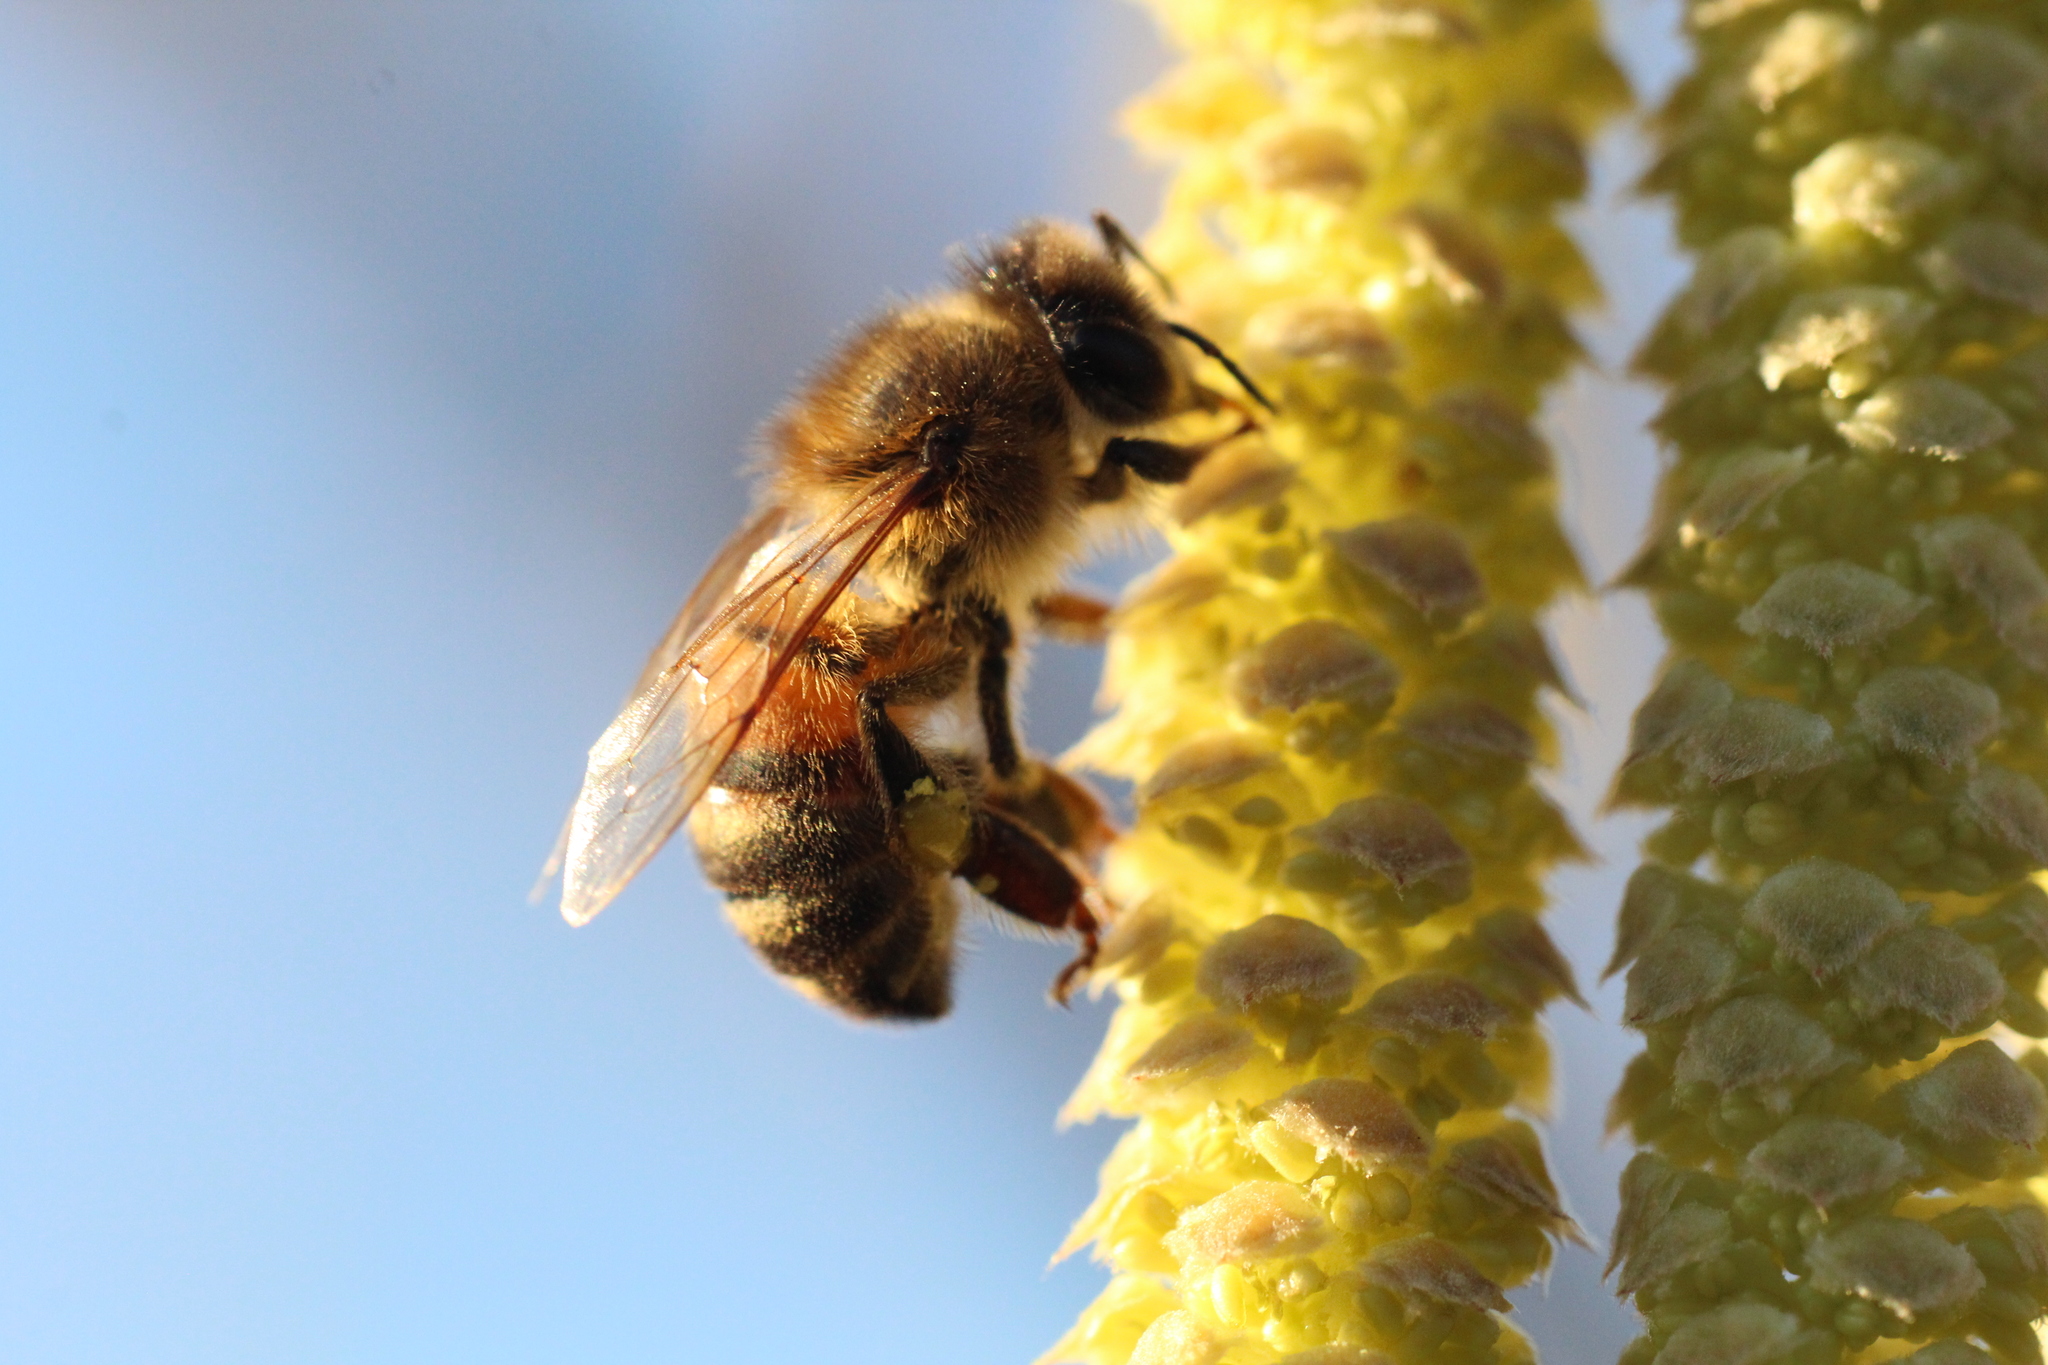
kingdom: Animalia
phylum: Arthropoda
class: Insecta
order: Hymenoptera
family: Apidae
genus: Apis
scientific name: Apis mellifera
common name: Honey bee
